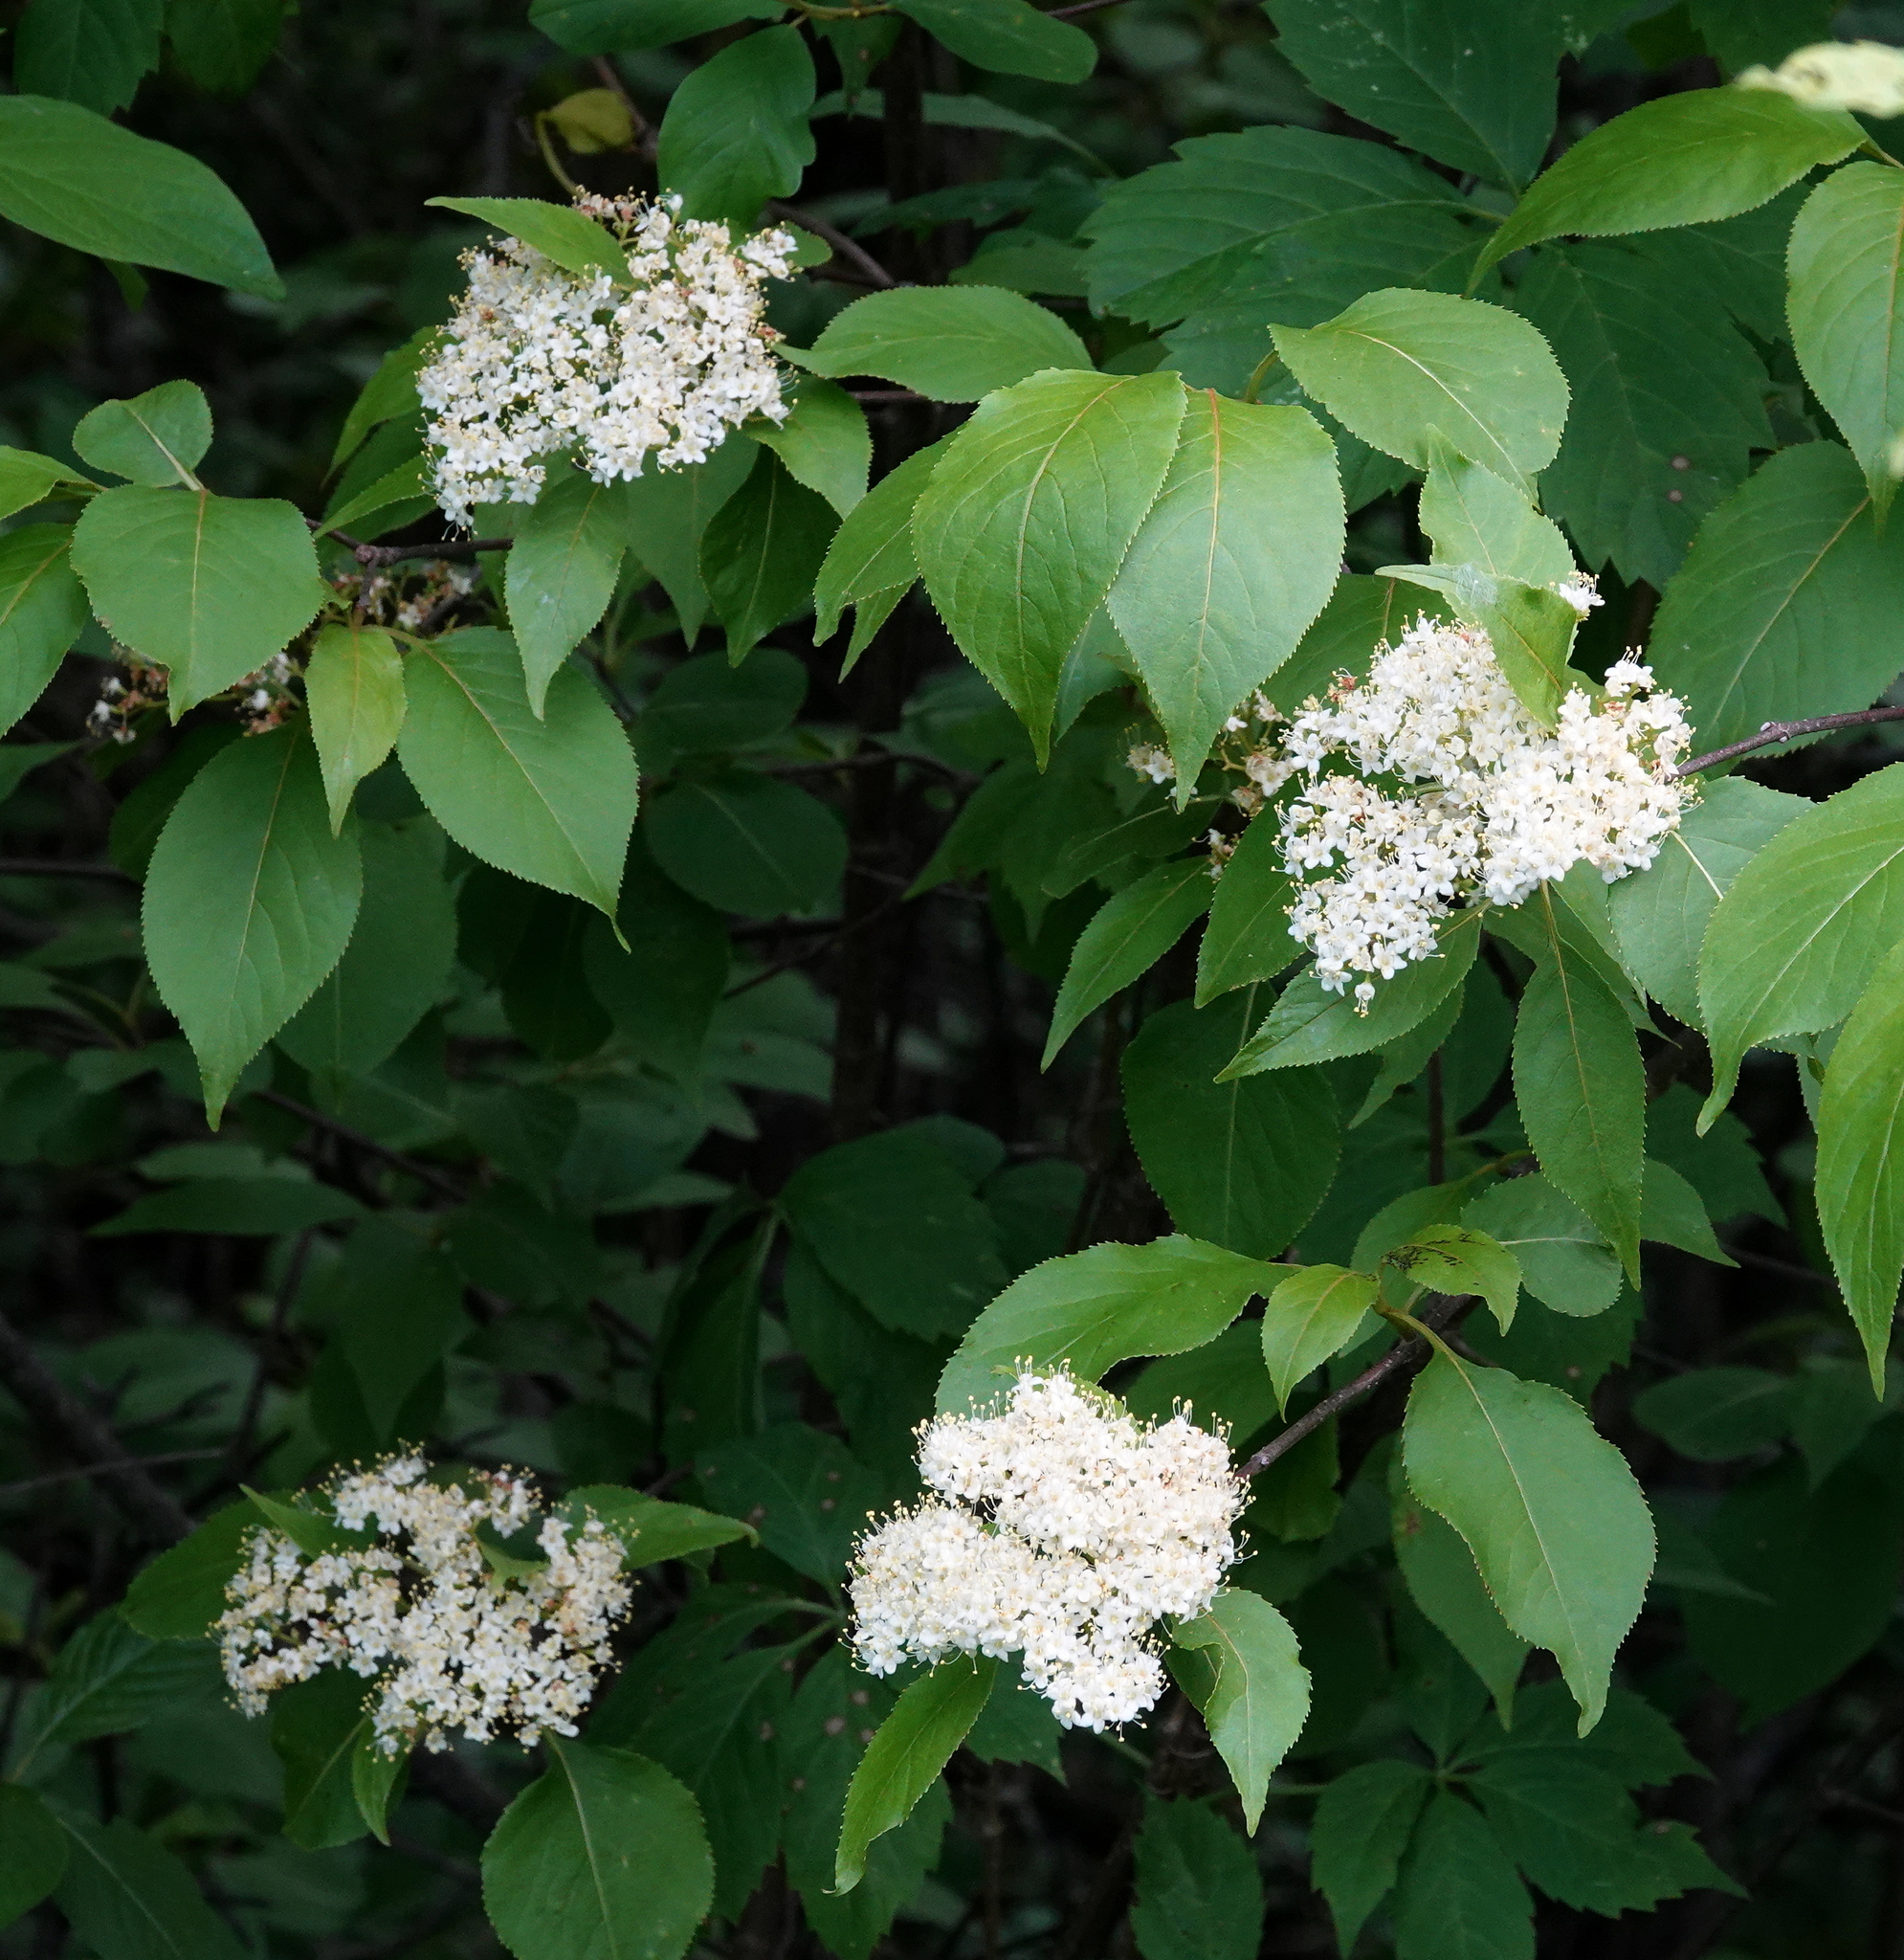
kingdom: Plantae
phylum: Tracheophyta
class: Magnoliopsida
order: Dipsacales
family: Viburnaceae
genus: Viburnum
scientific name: Viburnum lentago
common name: Black haw
